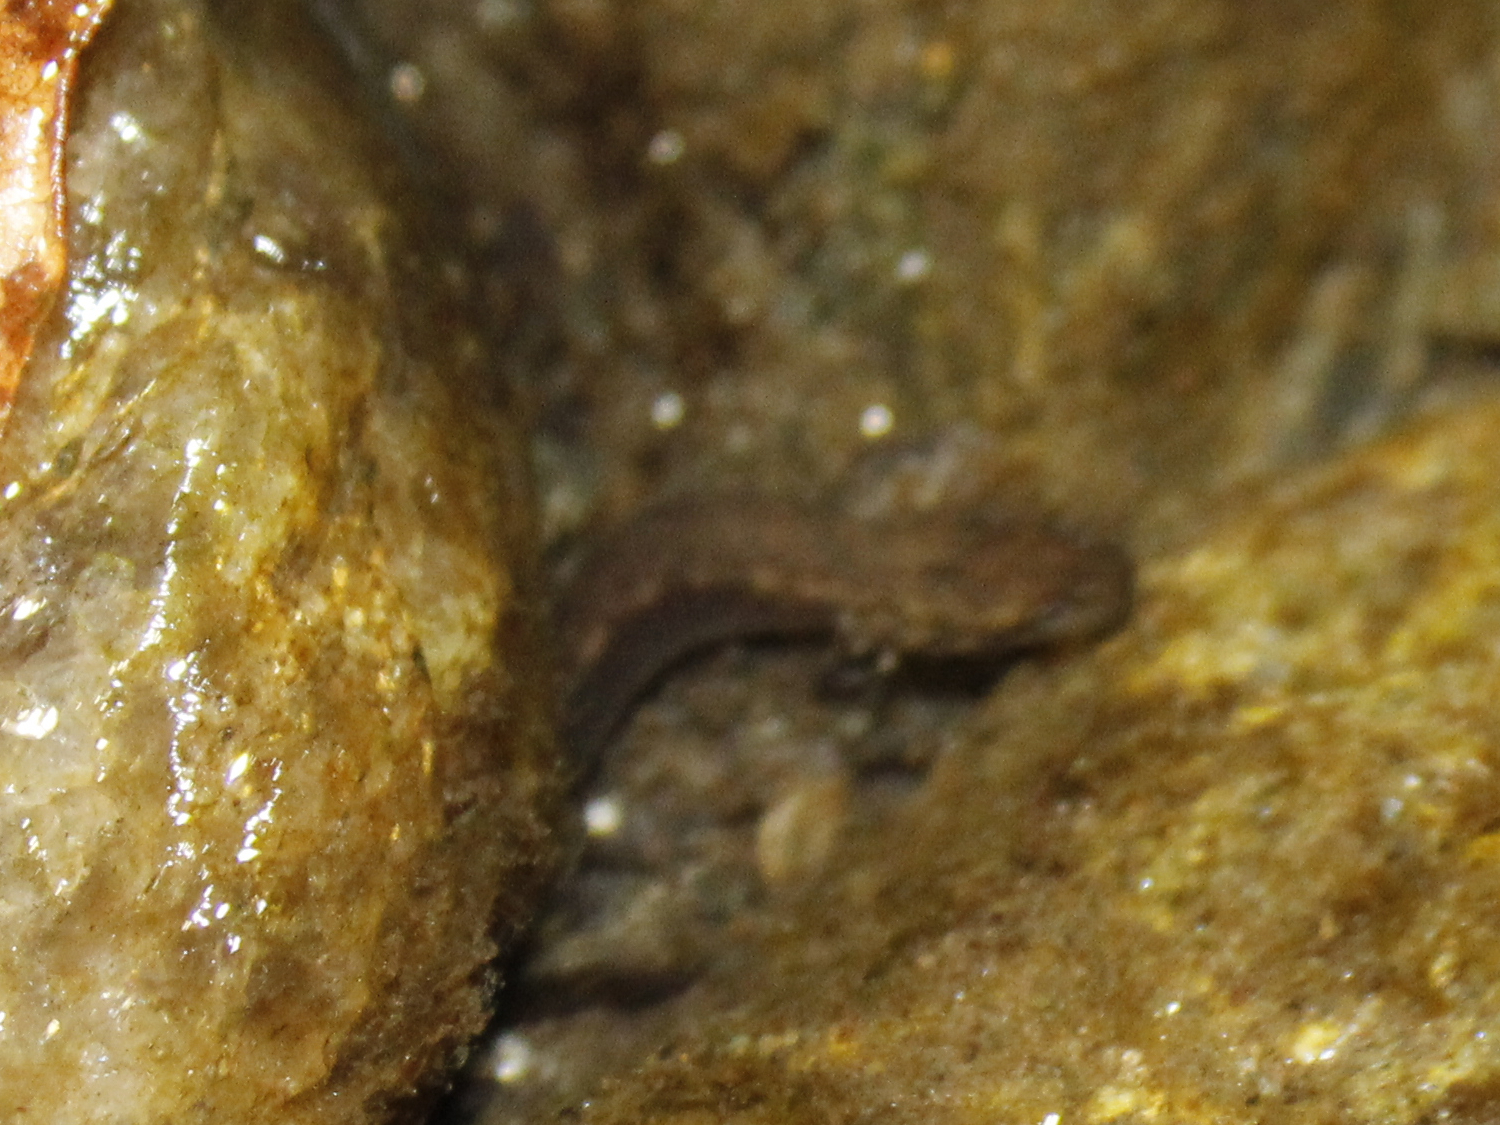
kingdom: Animalia
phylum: Chordata
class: Amphibia
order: Caudata
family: Plethodontidae
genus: Eurycea
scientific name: Eurycea bislineata
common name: Northern two-lined salamander
